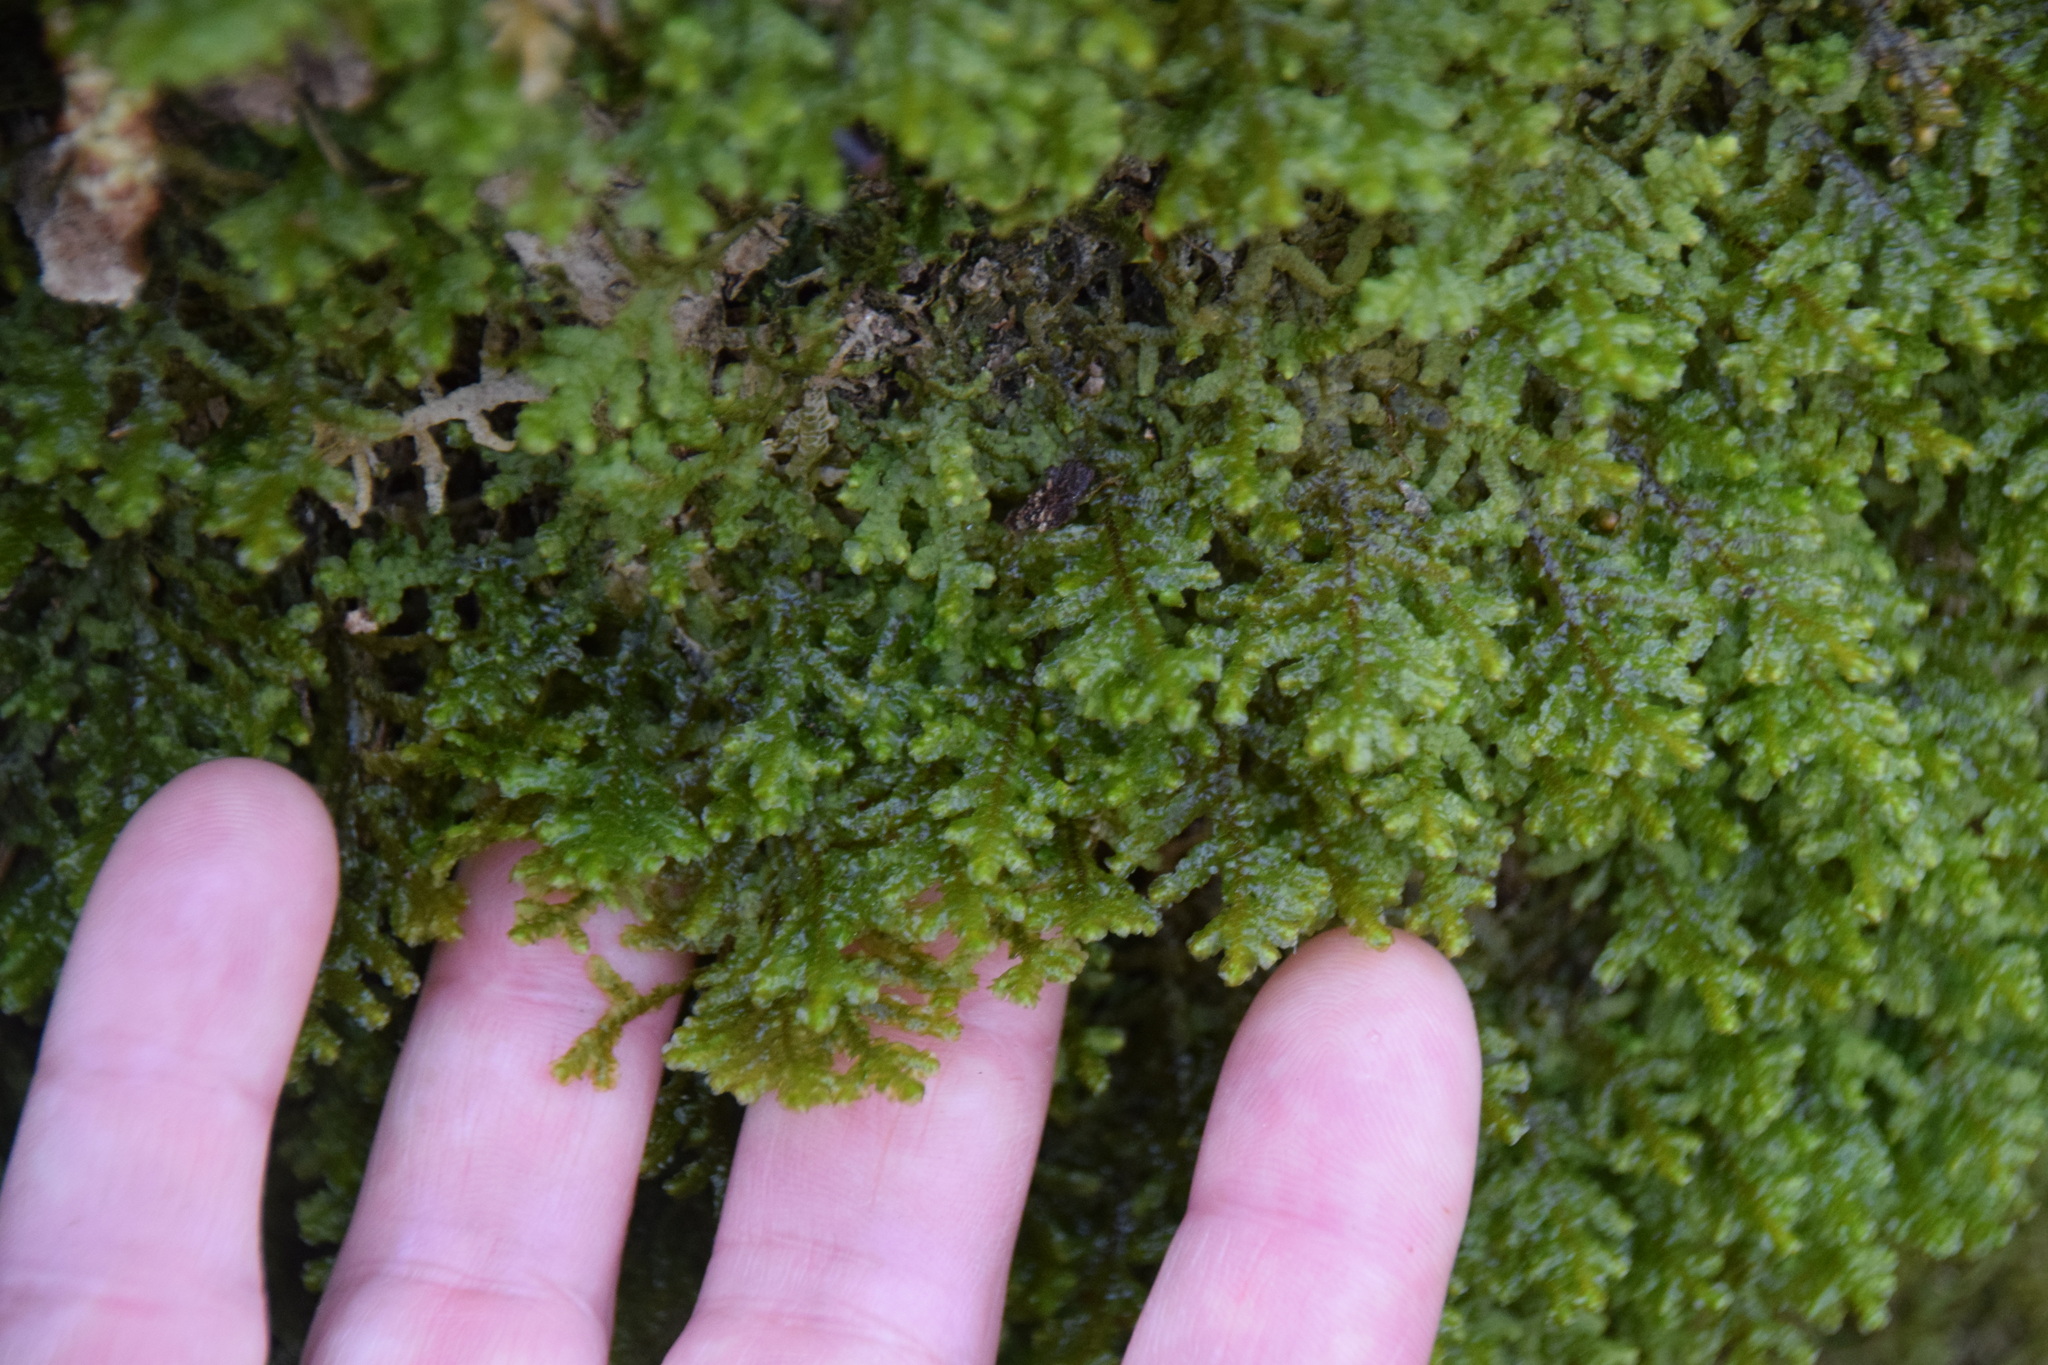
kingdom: Plantae
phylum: Marchantiophyta
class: Jungermanniopsida
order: Porellales
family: Porellaceae
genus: Porella
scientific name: Porella platyphylla
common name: Wall scalewort
